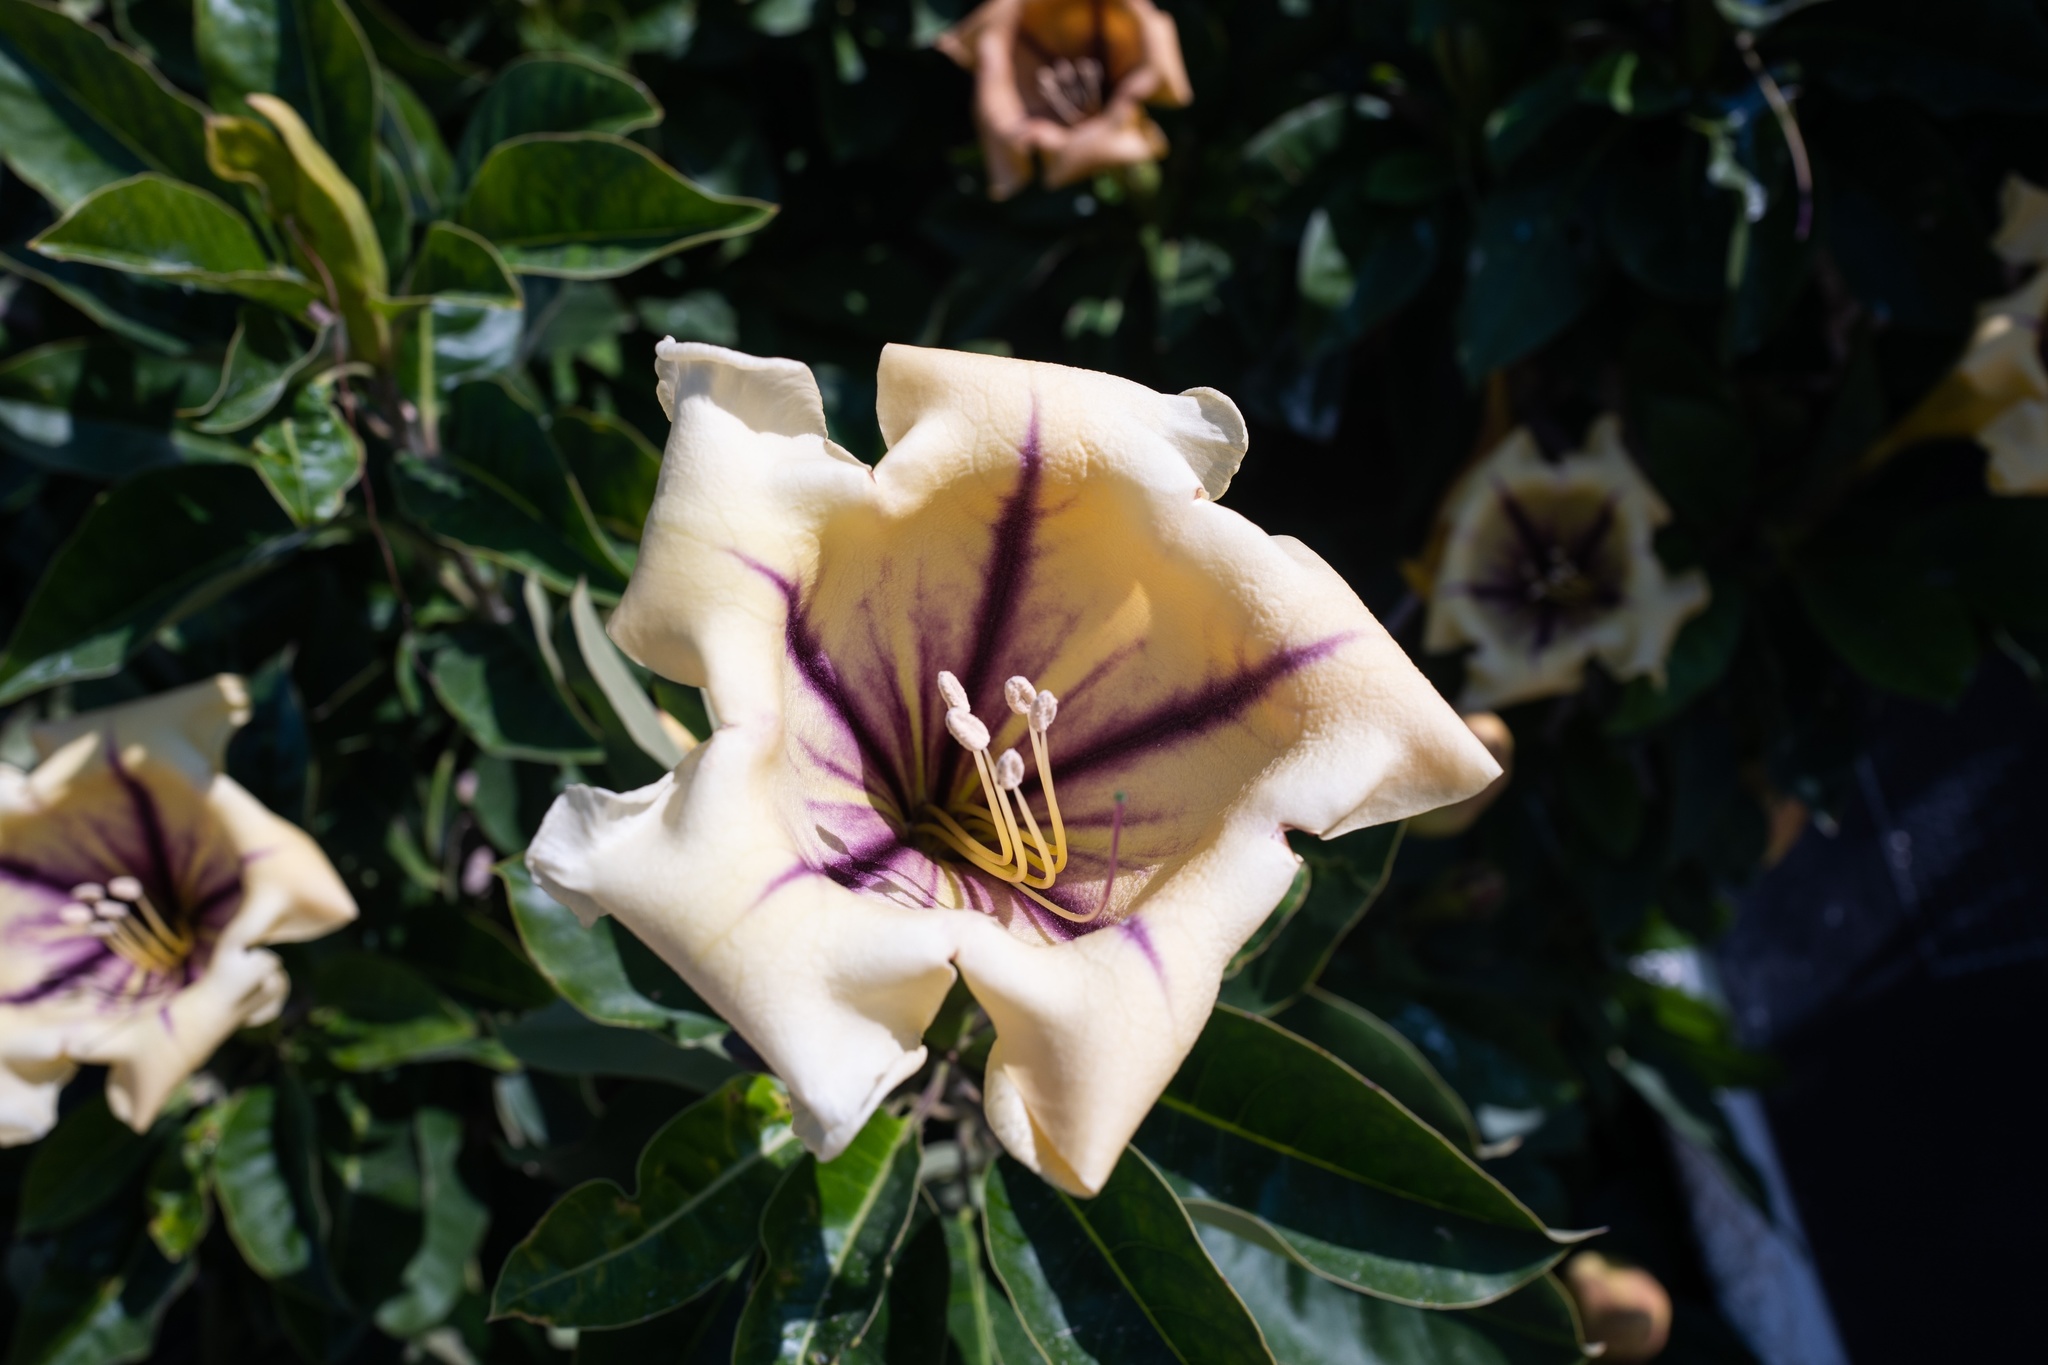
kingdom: Plantae
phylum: Tracheophyta
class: Magnoliopsida
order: Solanales
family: Solanaceae
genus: Solandra
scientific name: Solandra maxima
